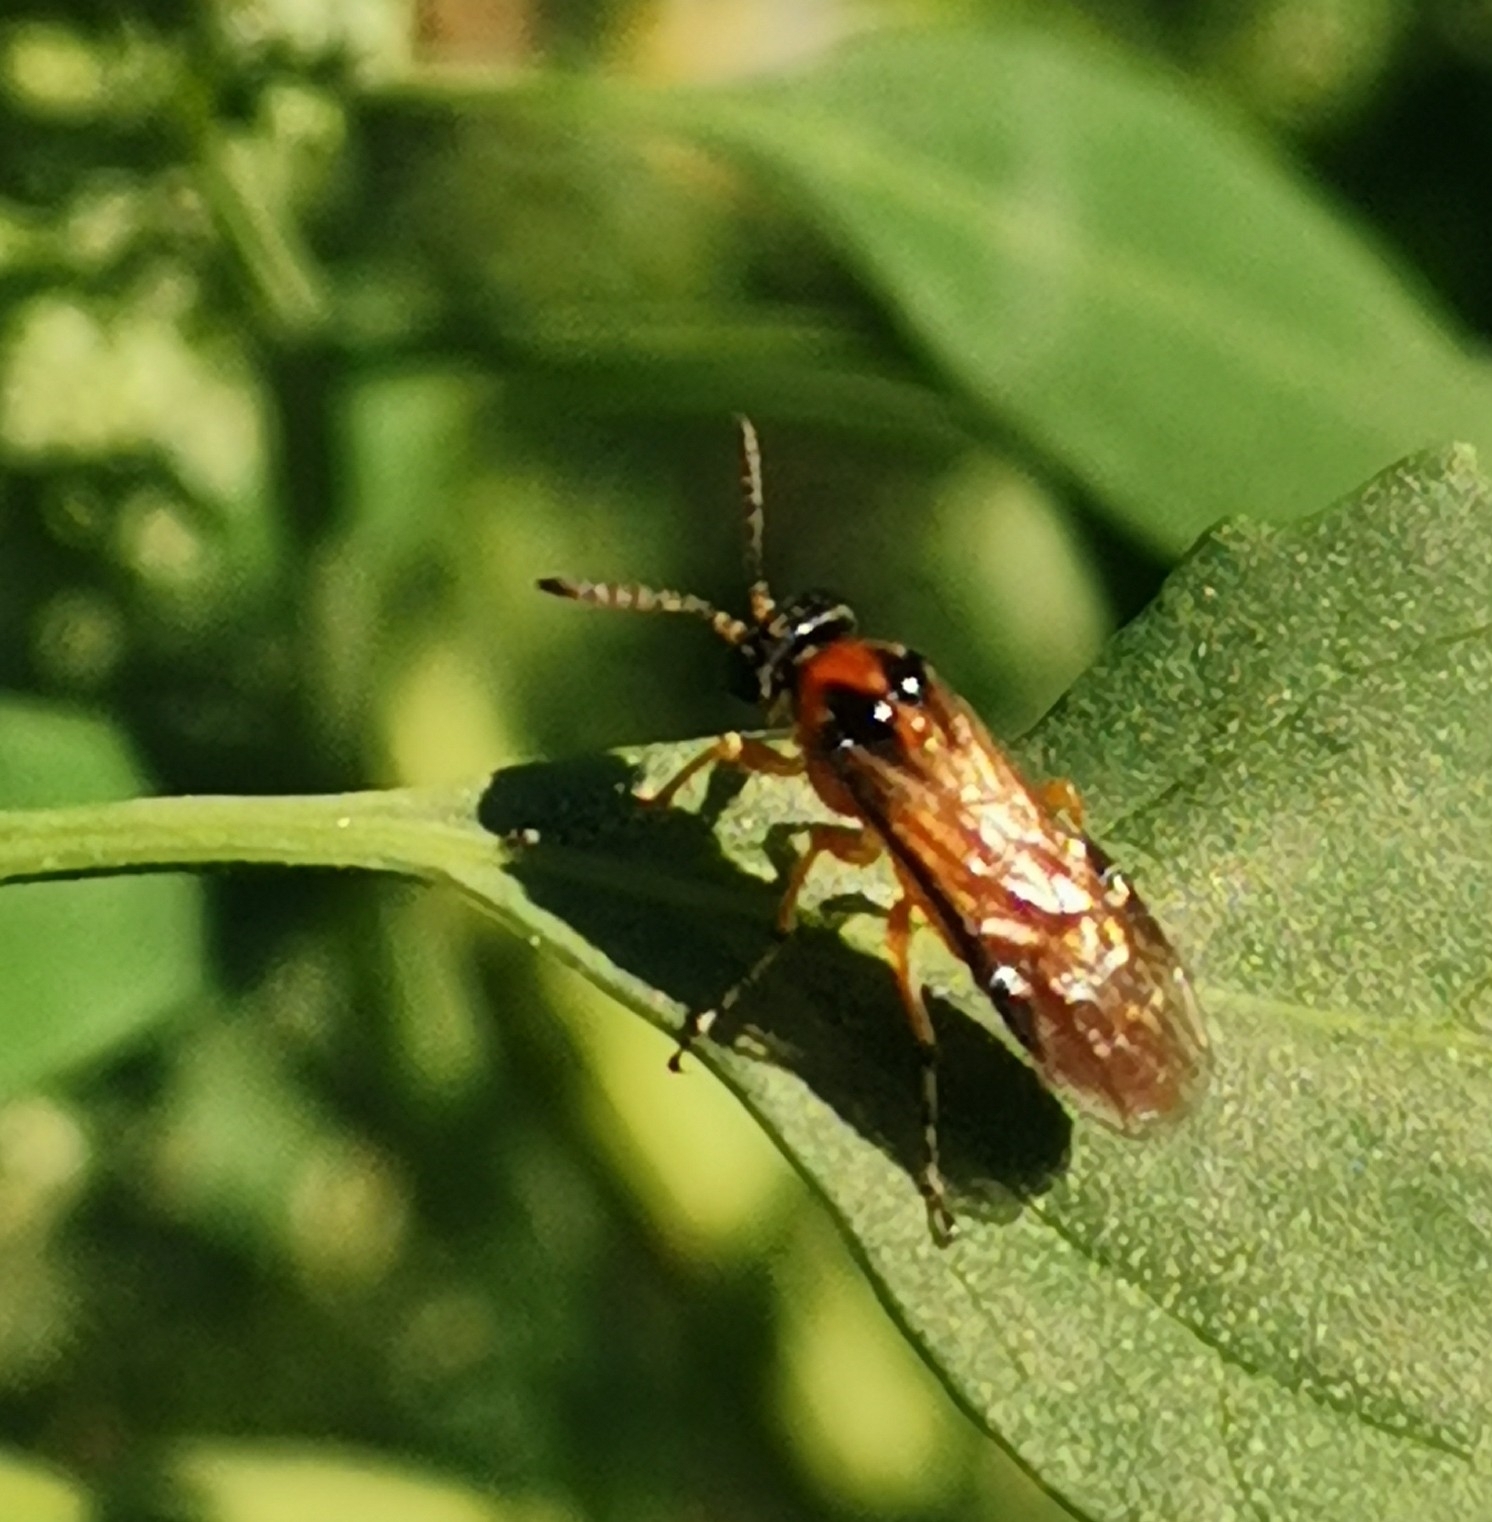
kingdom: Animalia
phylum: Arthropoda
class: Insecta
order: Hymenoptera
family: Tenthredinidae
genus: Athalia
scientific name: Athalia rosae
